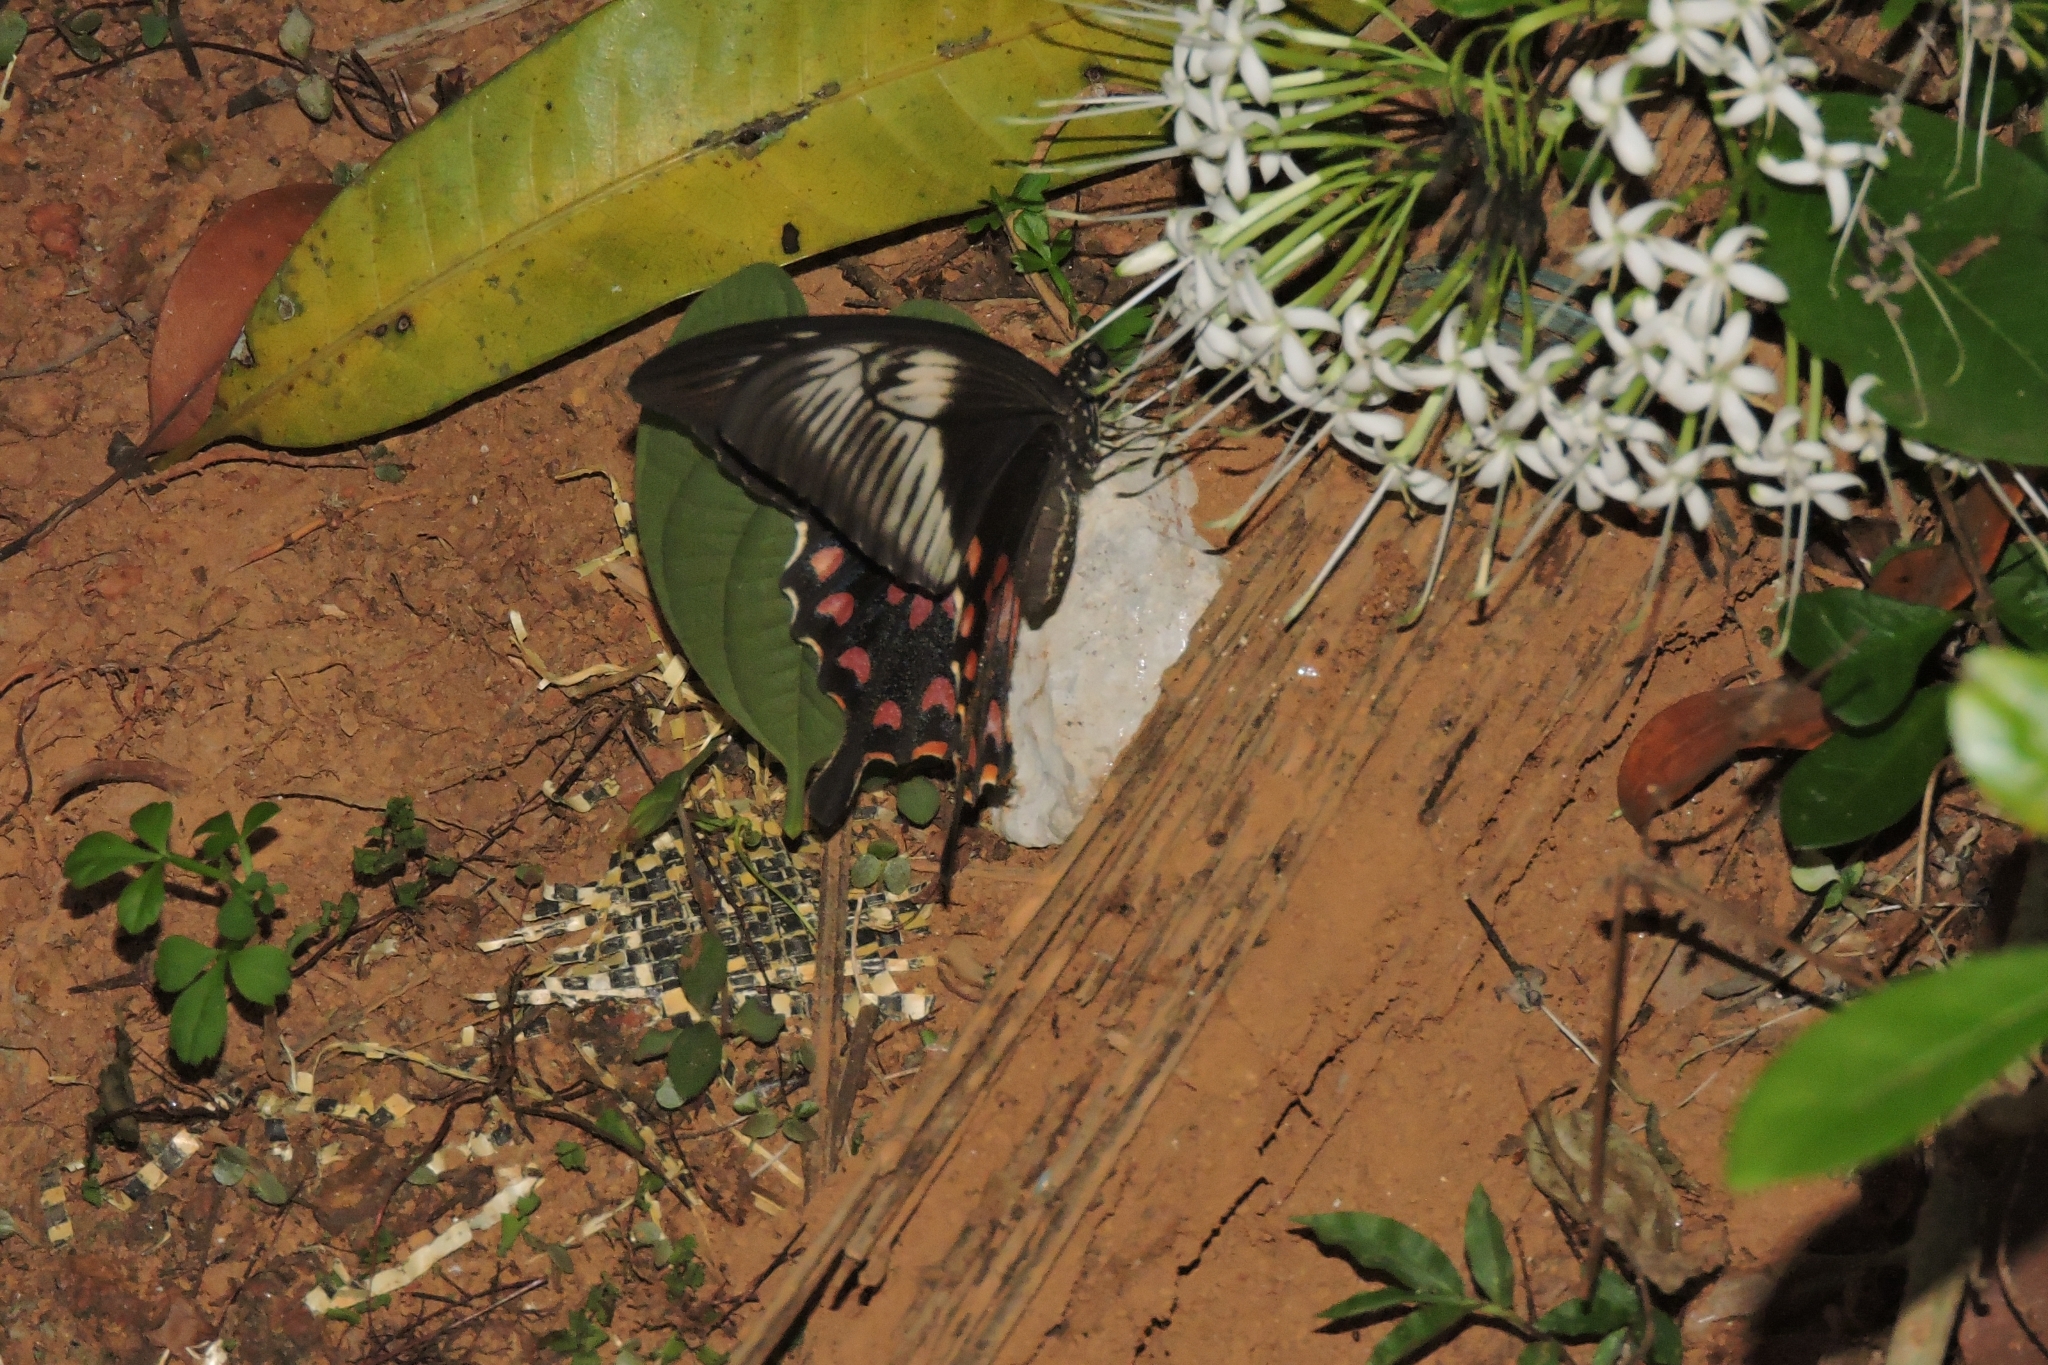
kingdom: Animalia
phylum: Arthropoda
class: Insecta
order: Lepidoptera
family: Papilionidae
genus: Papilio
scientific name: Papilio polytes
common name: Common mormon
